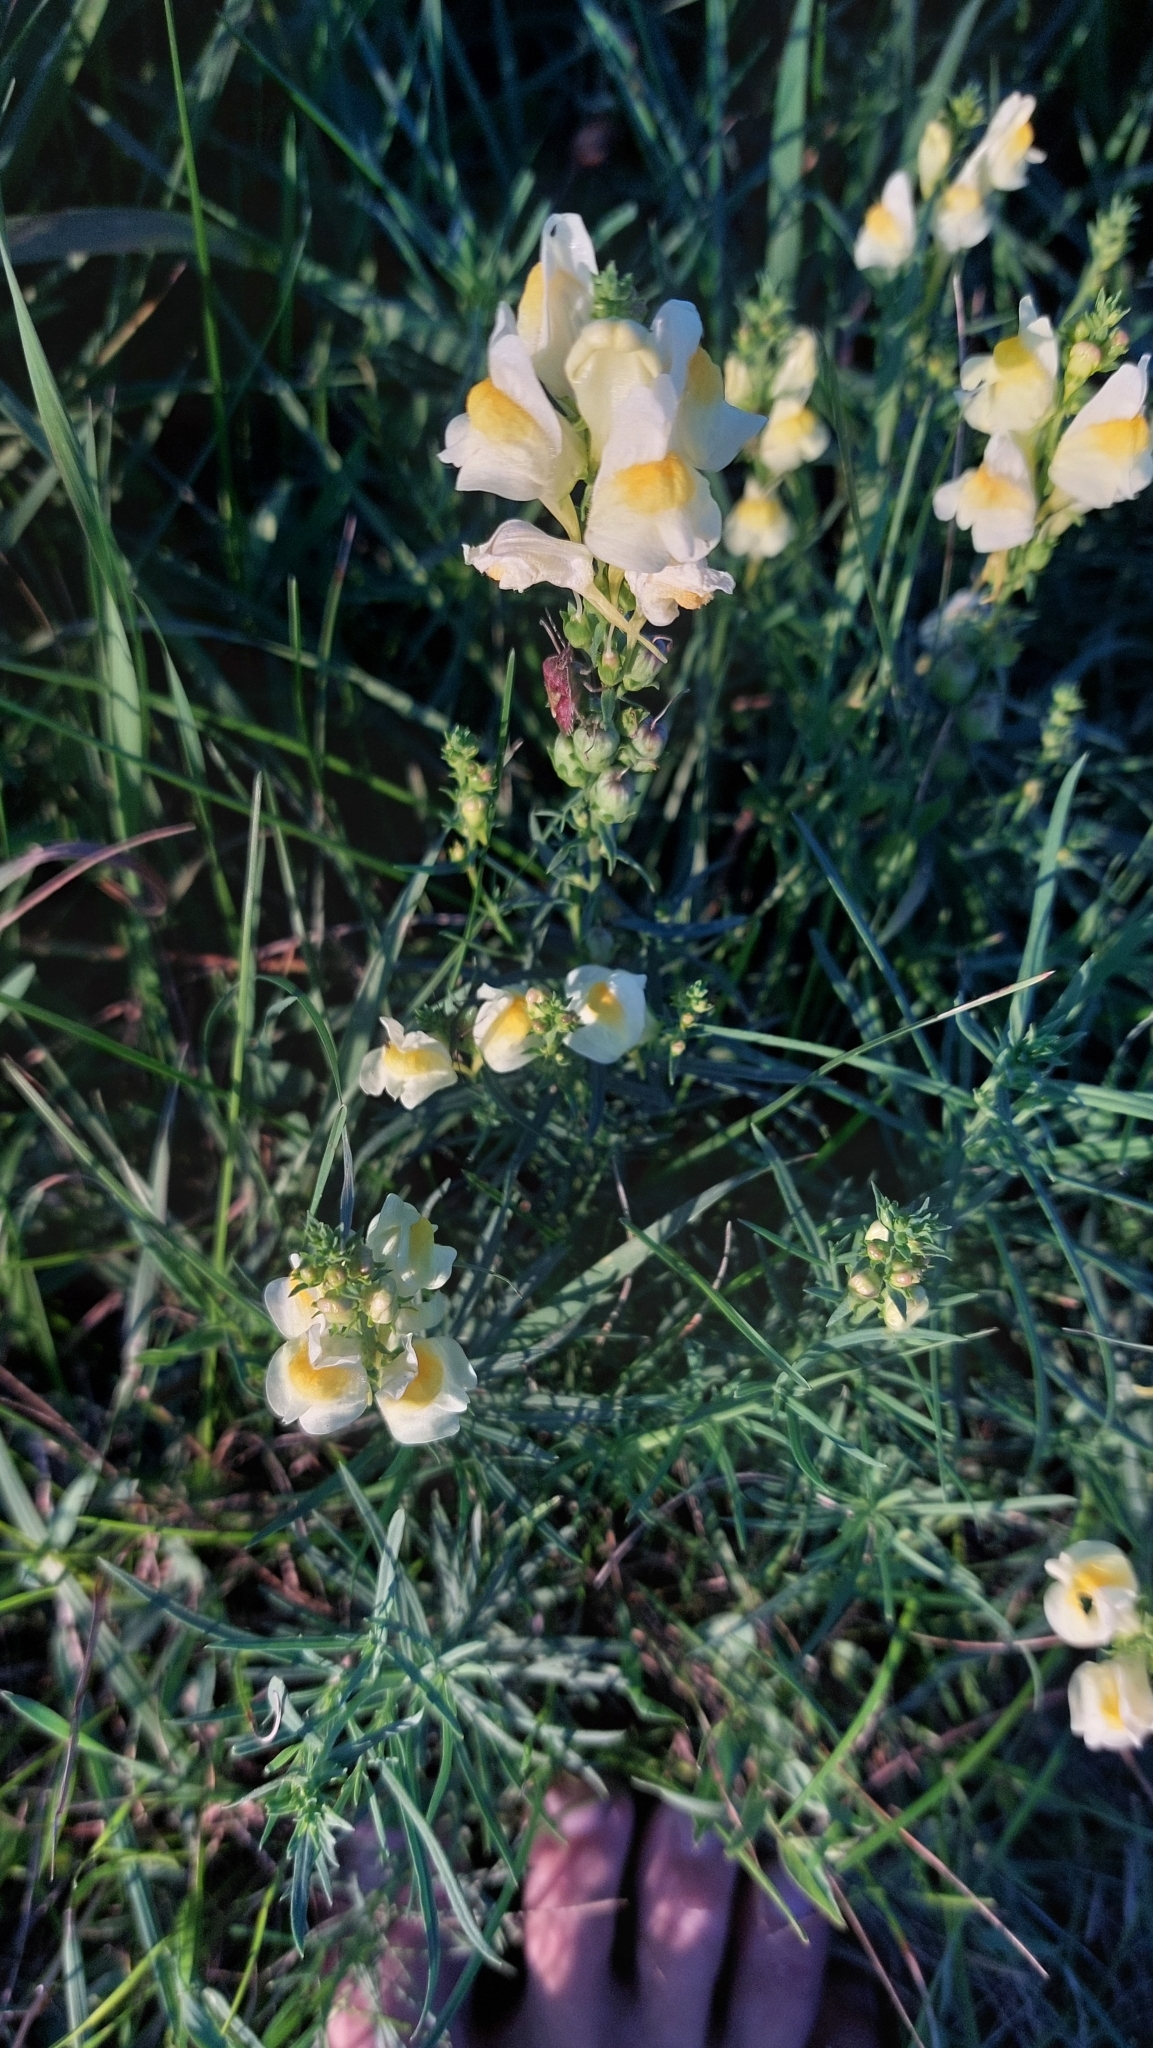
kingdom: Plantae
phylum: Tracheophyta
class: Magnoliopsida
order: Lamiales
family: Plantaginaceae
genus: Linaria
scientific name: Linaria vulgaris
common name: Butter and eggs
